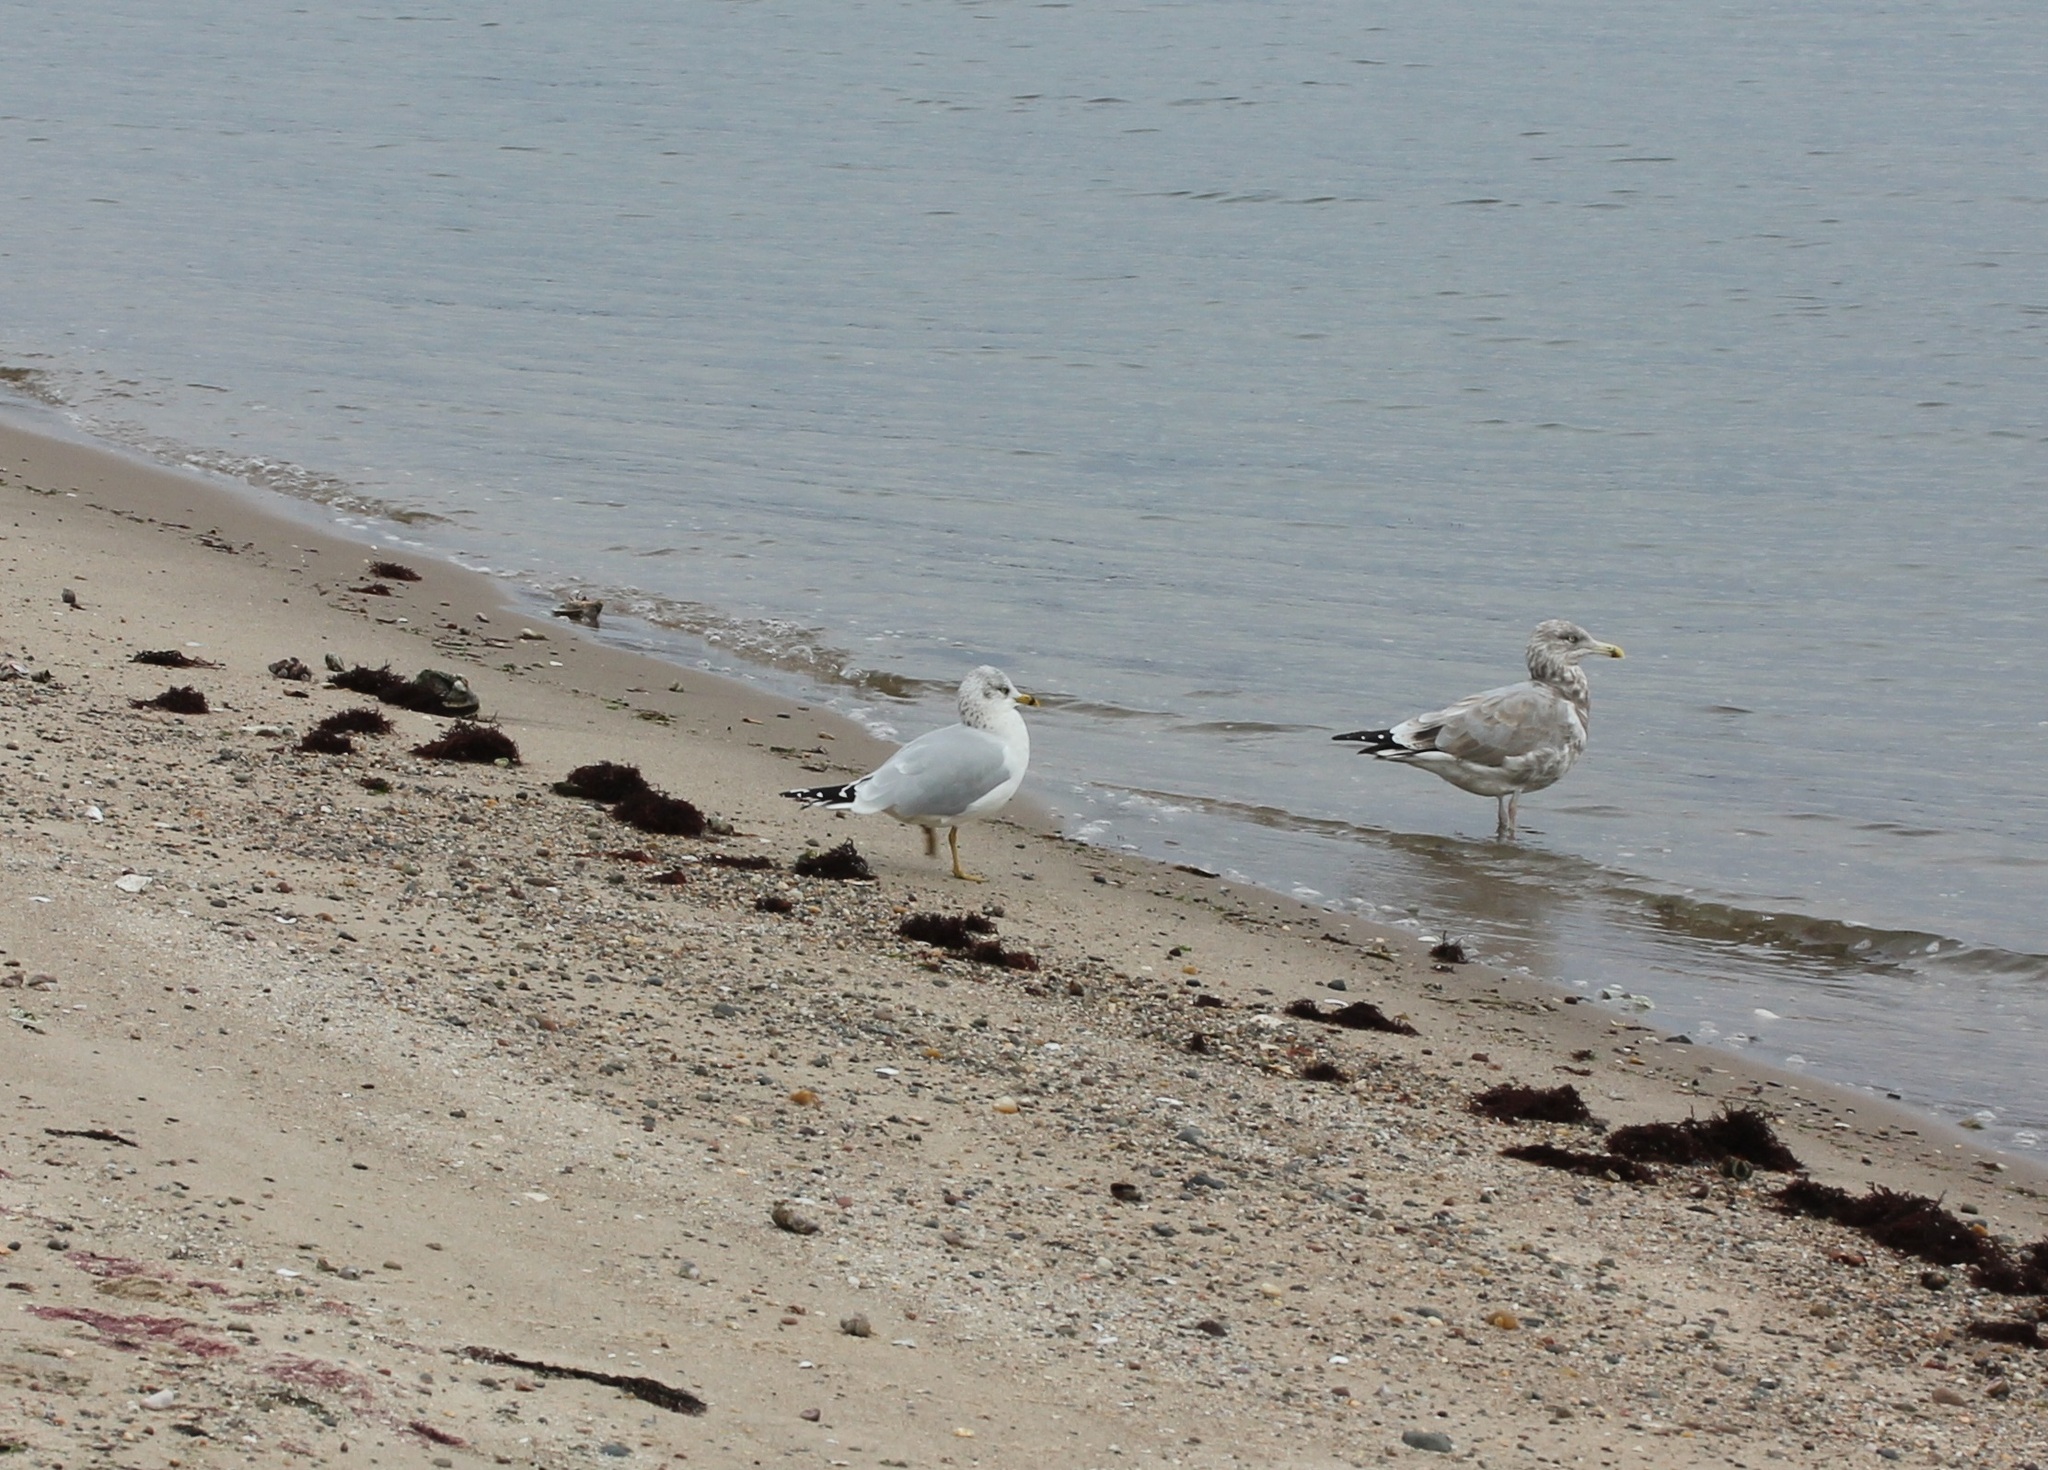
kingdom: Animalia
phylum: Chordata
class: Aves
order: Charadriiformes
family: Laridae
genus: Larus
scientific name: Larus delawarensis
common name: Ring-billed gull
